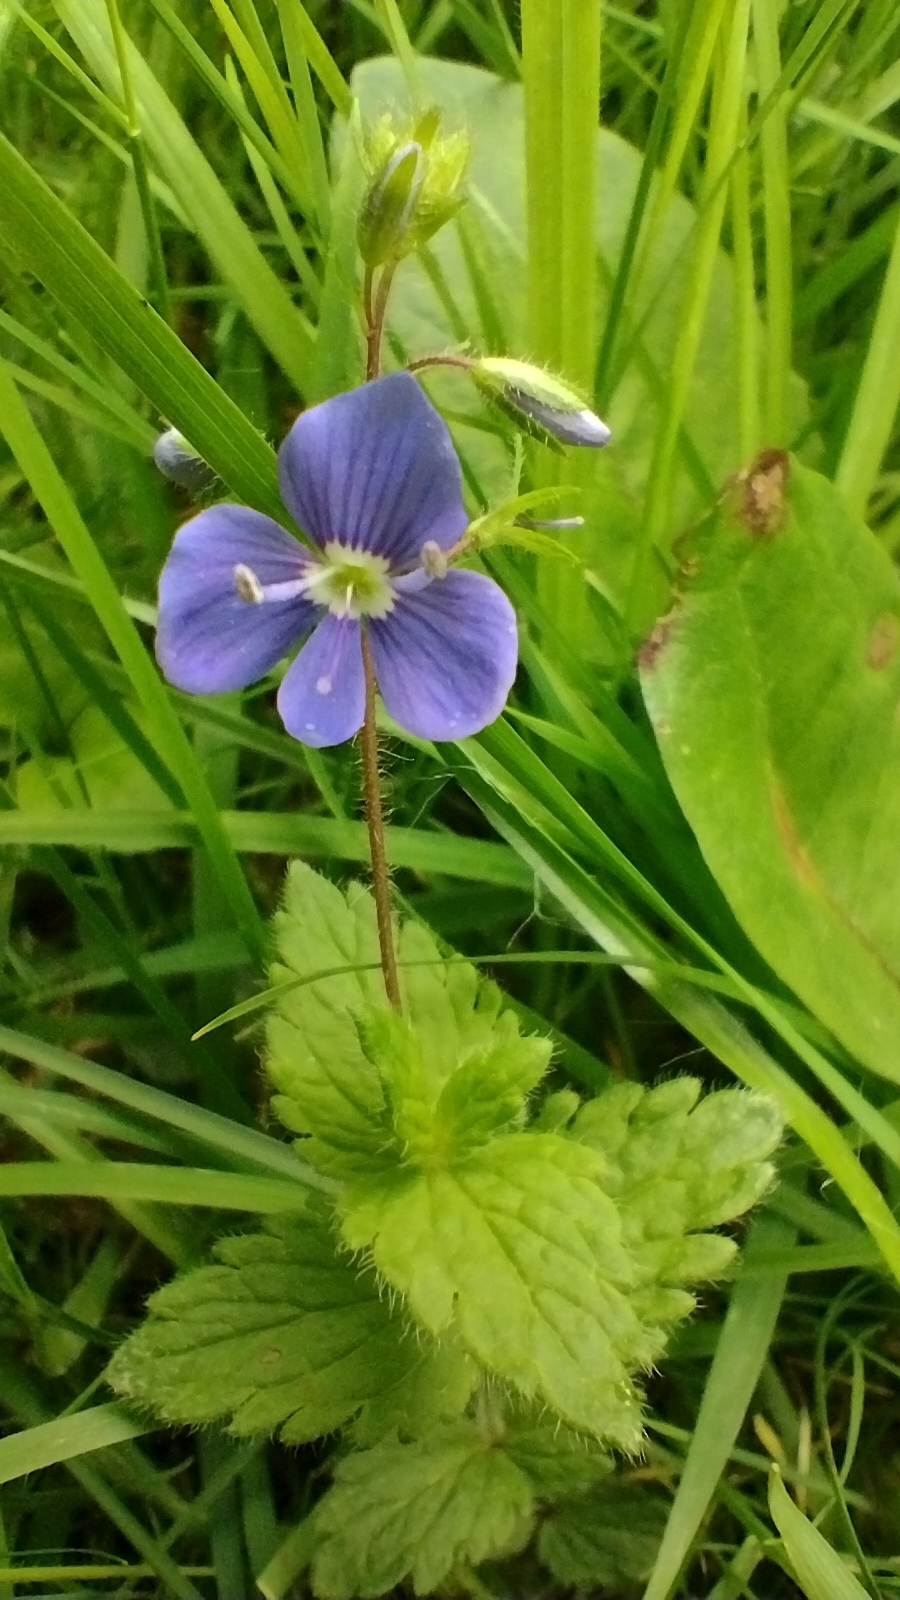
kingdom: Plantae
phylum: Tracheophyta
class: Magnoliopsida
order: Lamiales
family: Plantaginaceae
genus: Veronica
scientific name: Veronica chamaedrys
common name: Germander speedwell
